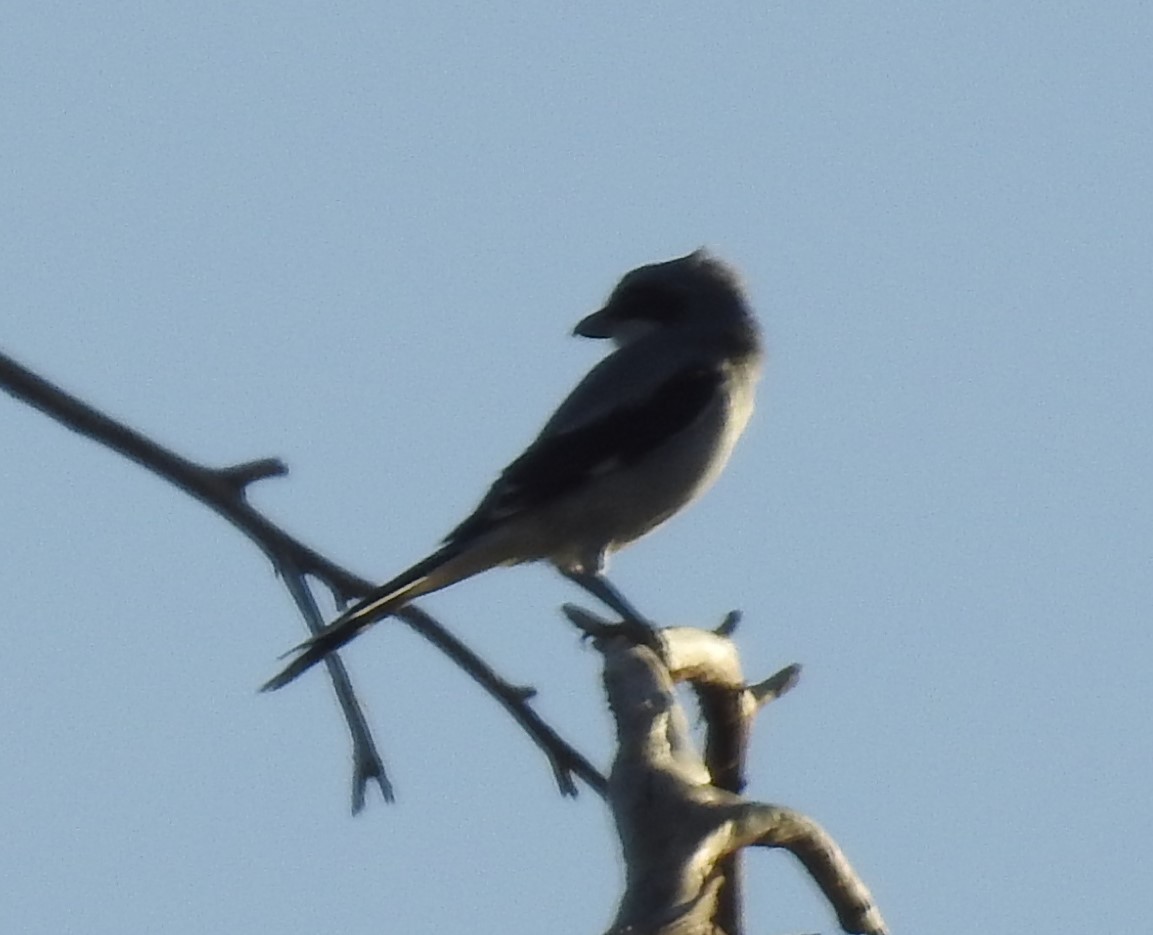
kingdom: Animalia
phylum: Chordata
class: Aves
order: Passeriformes
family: Laniidae
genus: Lanius
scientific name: Lanius ludovicianus
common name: Loggerhead shrike
